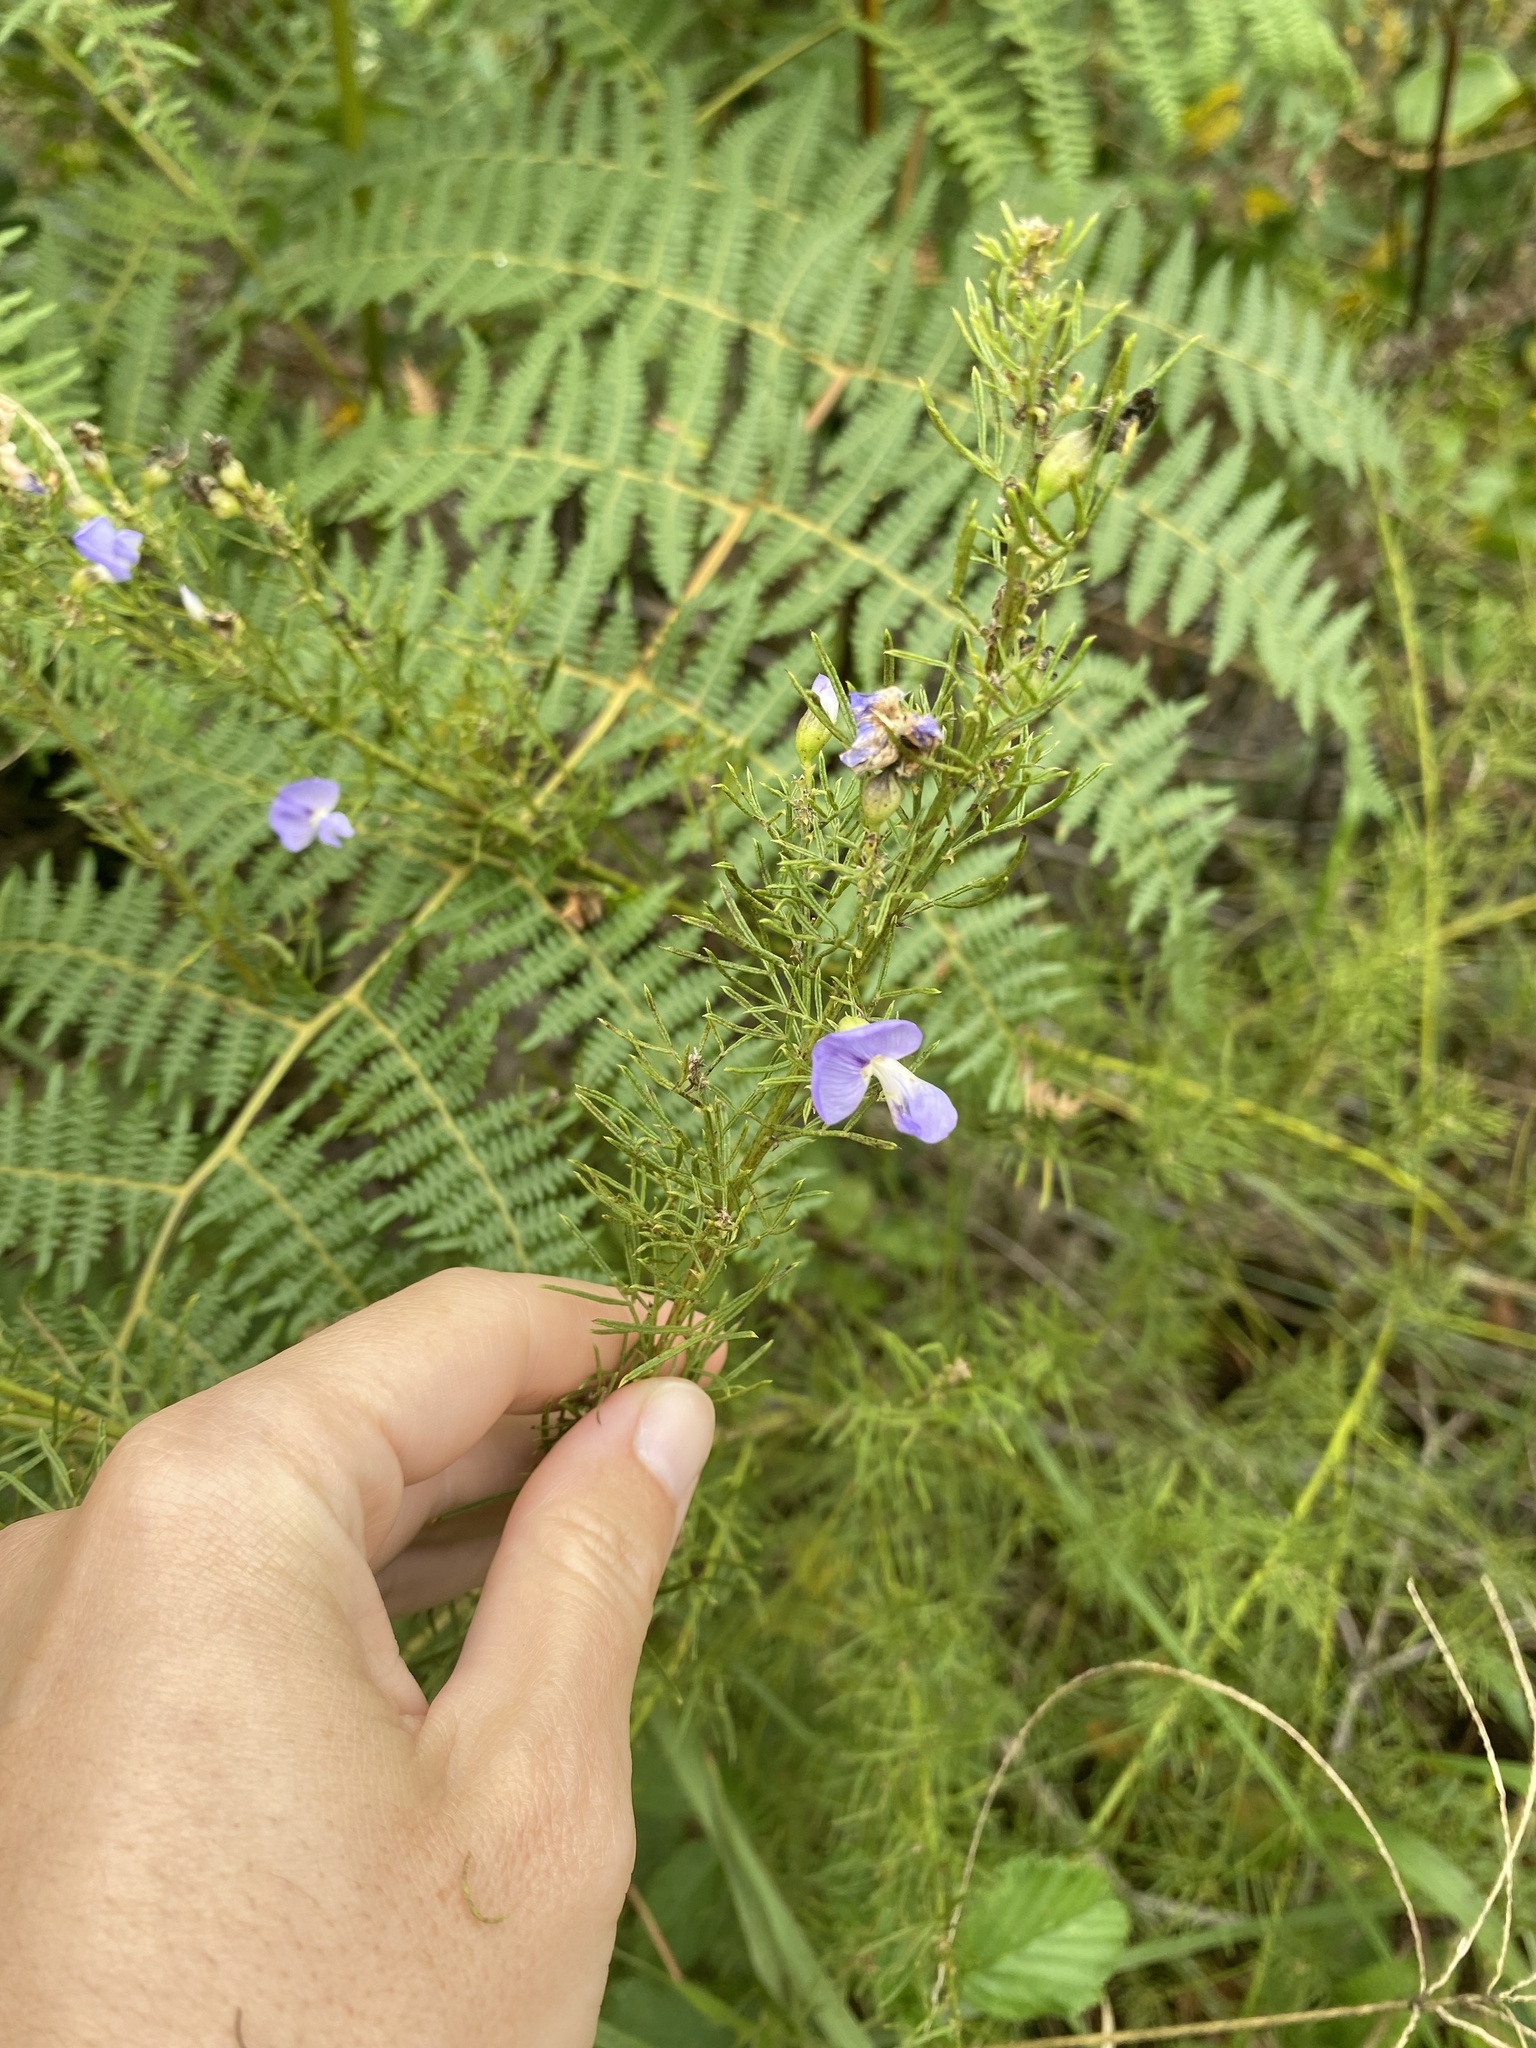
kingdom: Plantae
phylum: Tracheophyta
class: Magnoliopsida
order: Fabales
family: Fabaceae
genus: Psoralea
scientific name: Psoralea glabra
